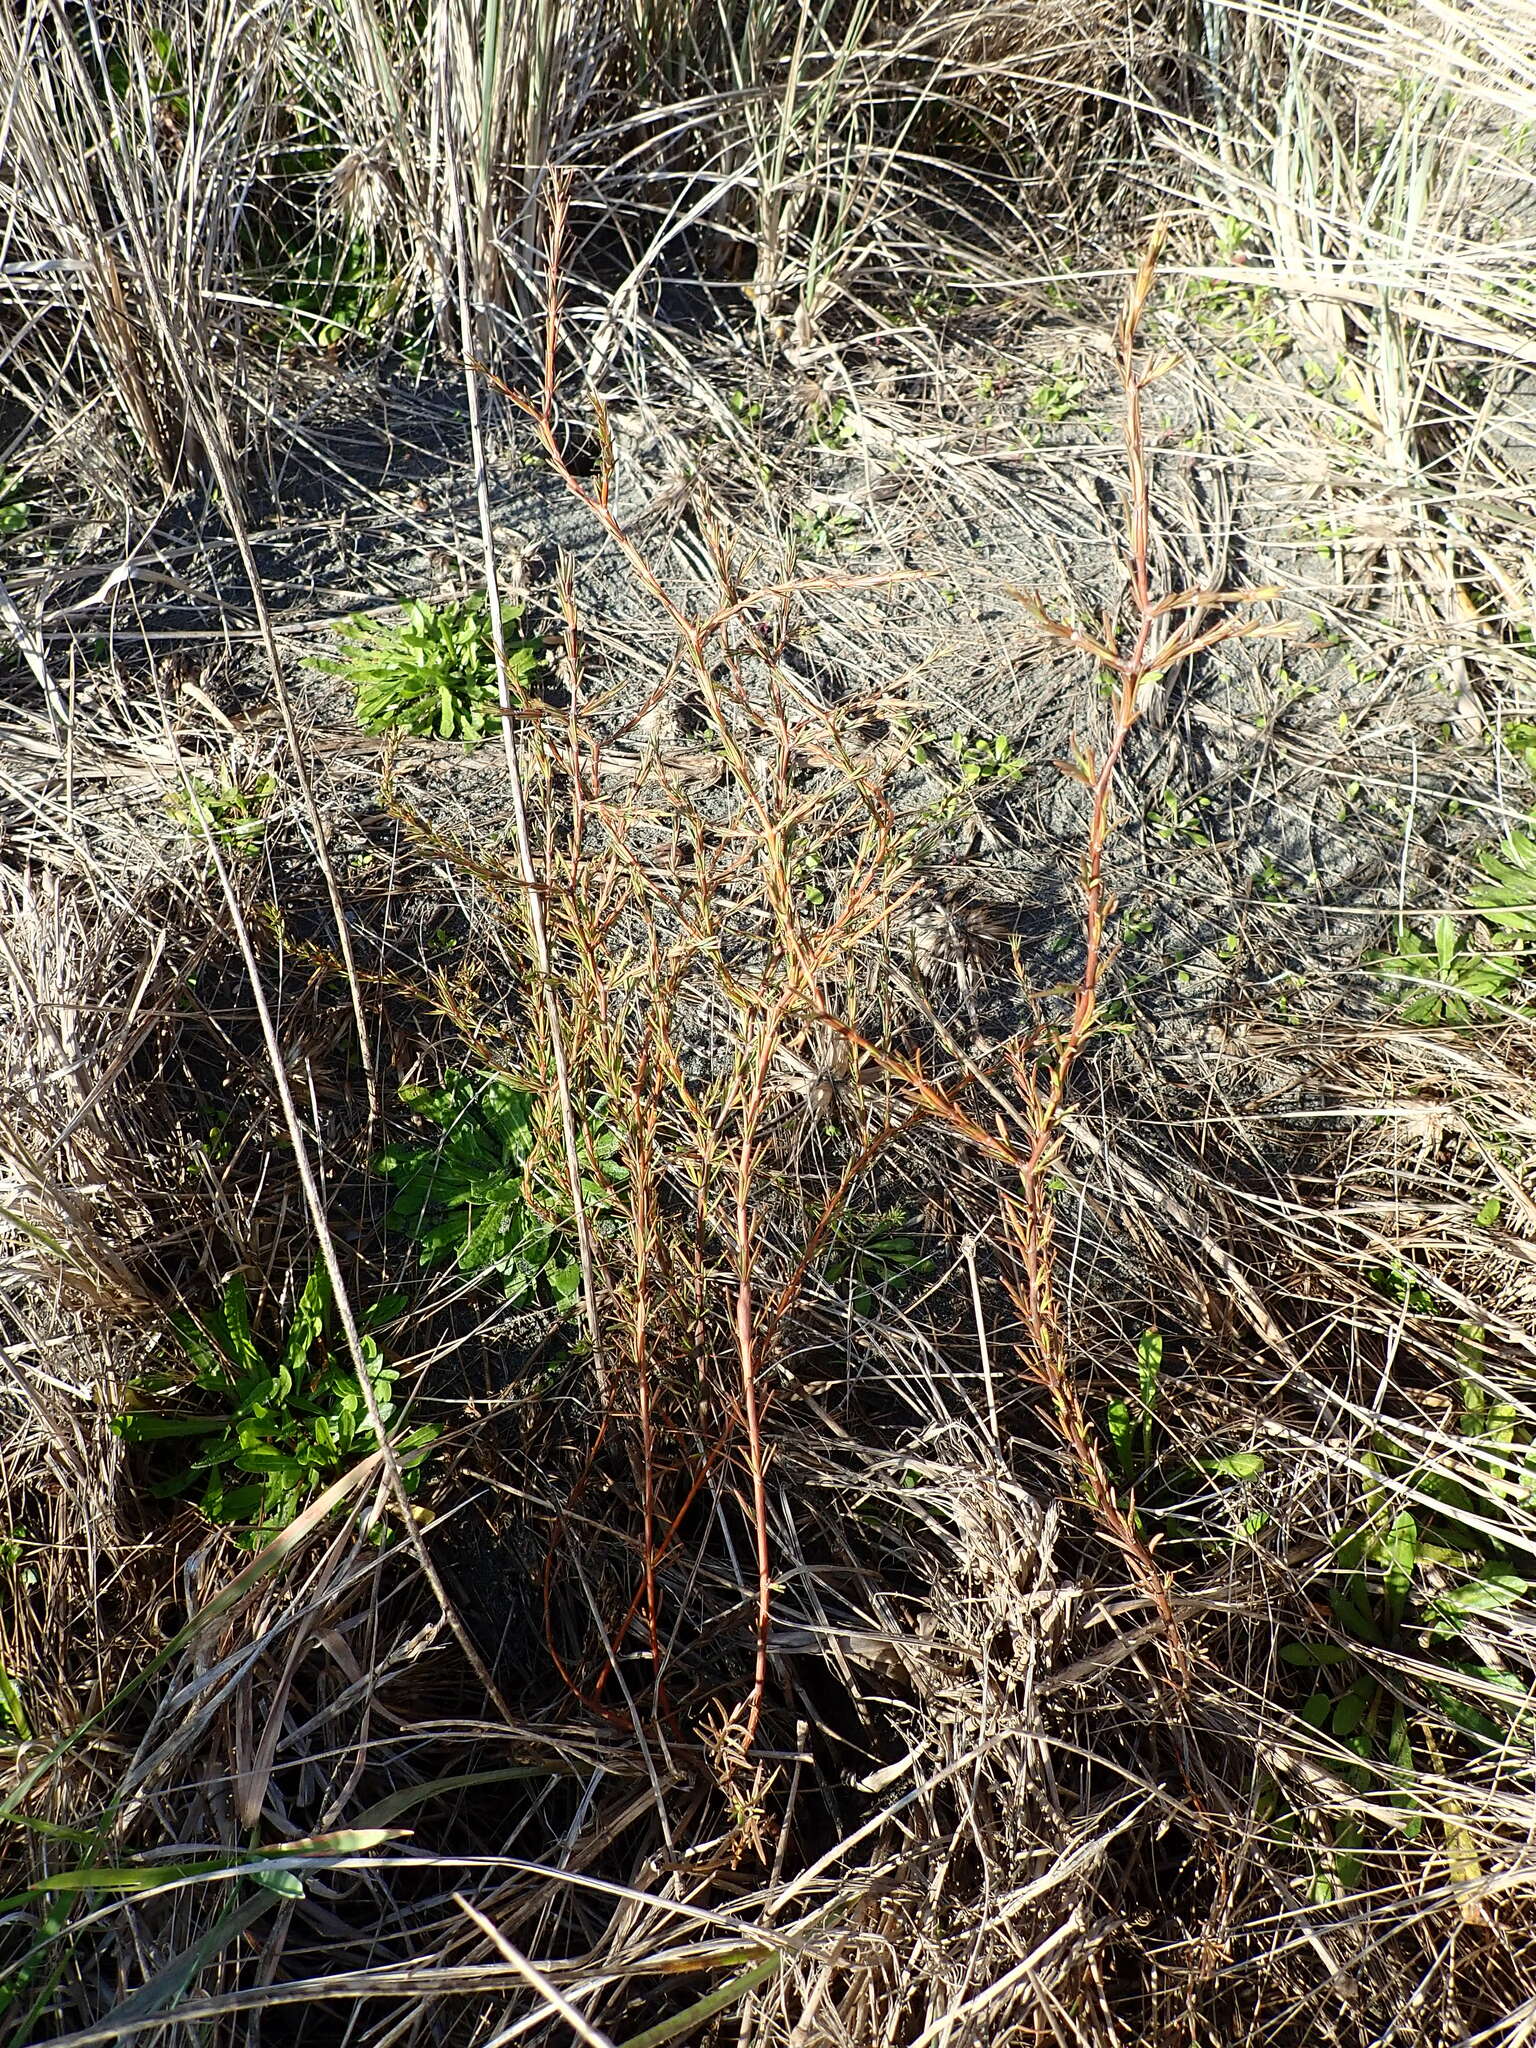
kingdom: Plantae
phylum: Tracheophyta
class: Magnoliopsida
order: Gentianales
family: Rubiaceae
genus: Coprosma
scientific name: Coprosma acerosa
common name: Sand coprosma
